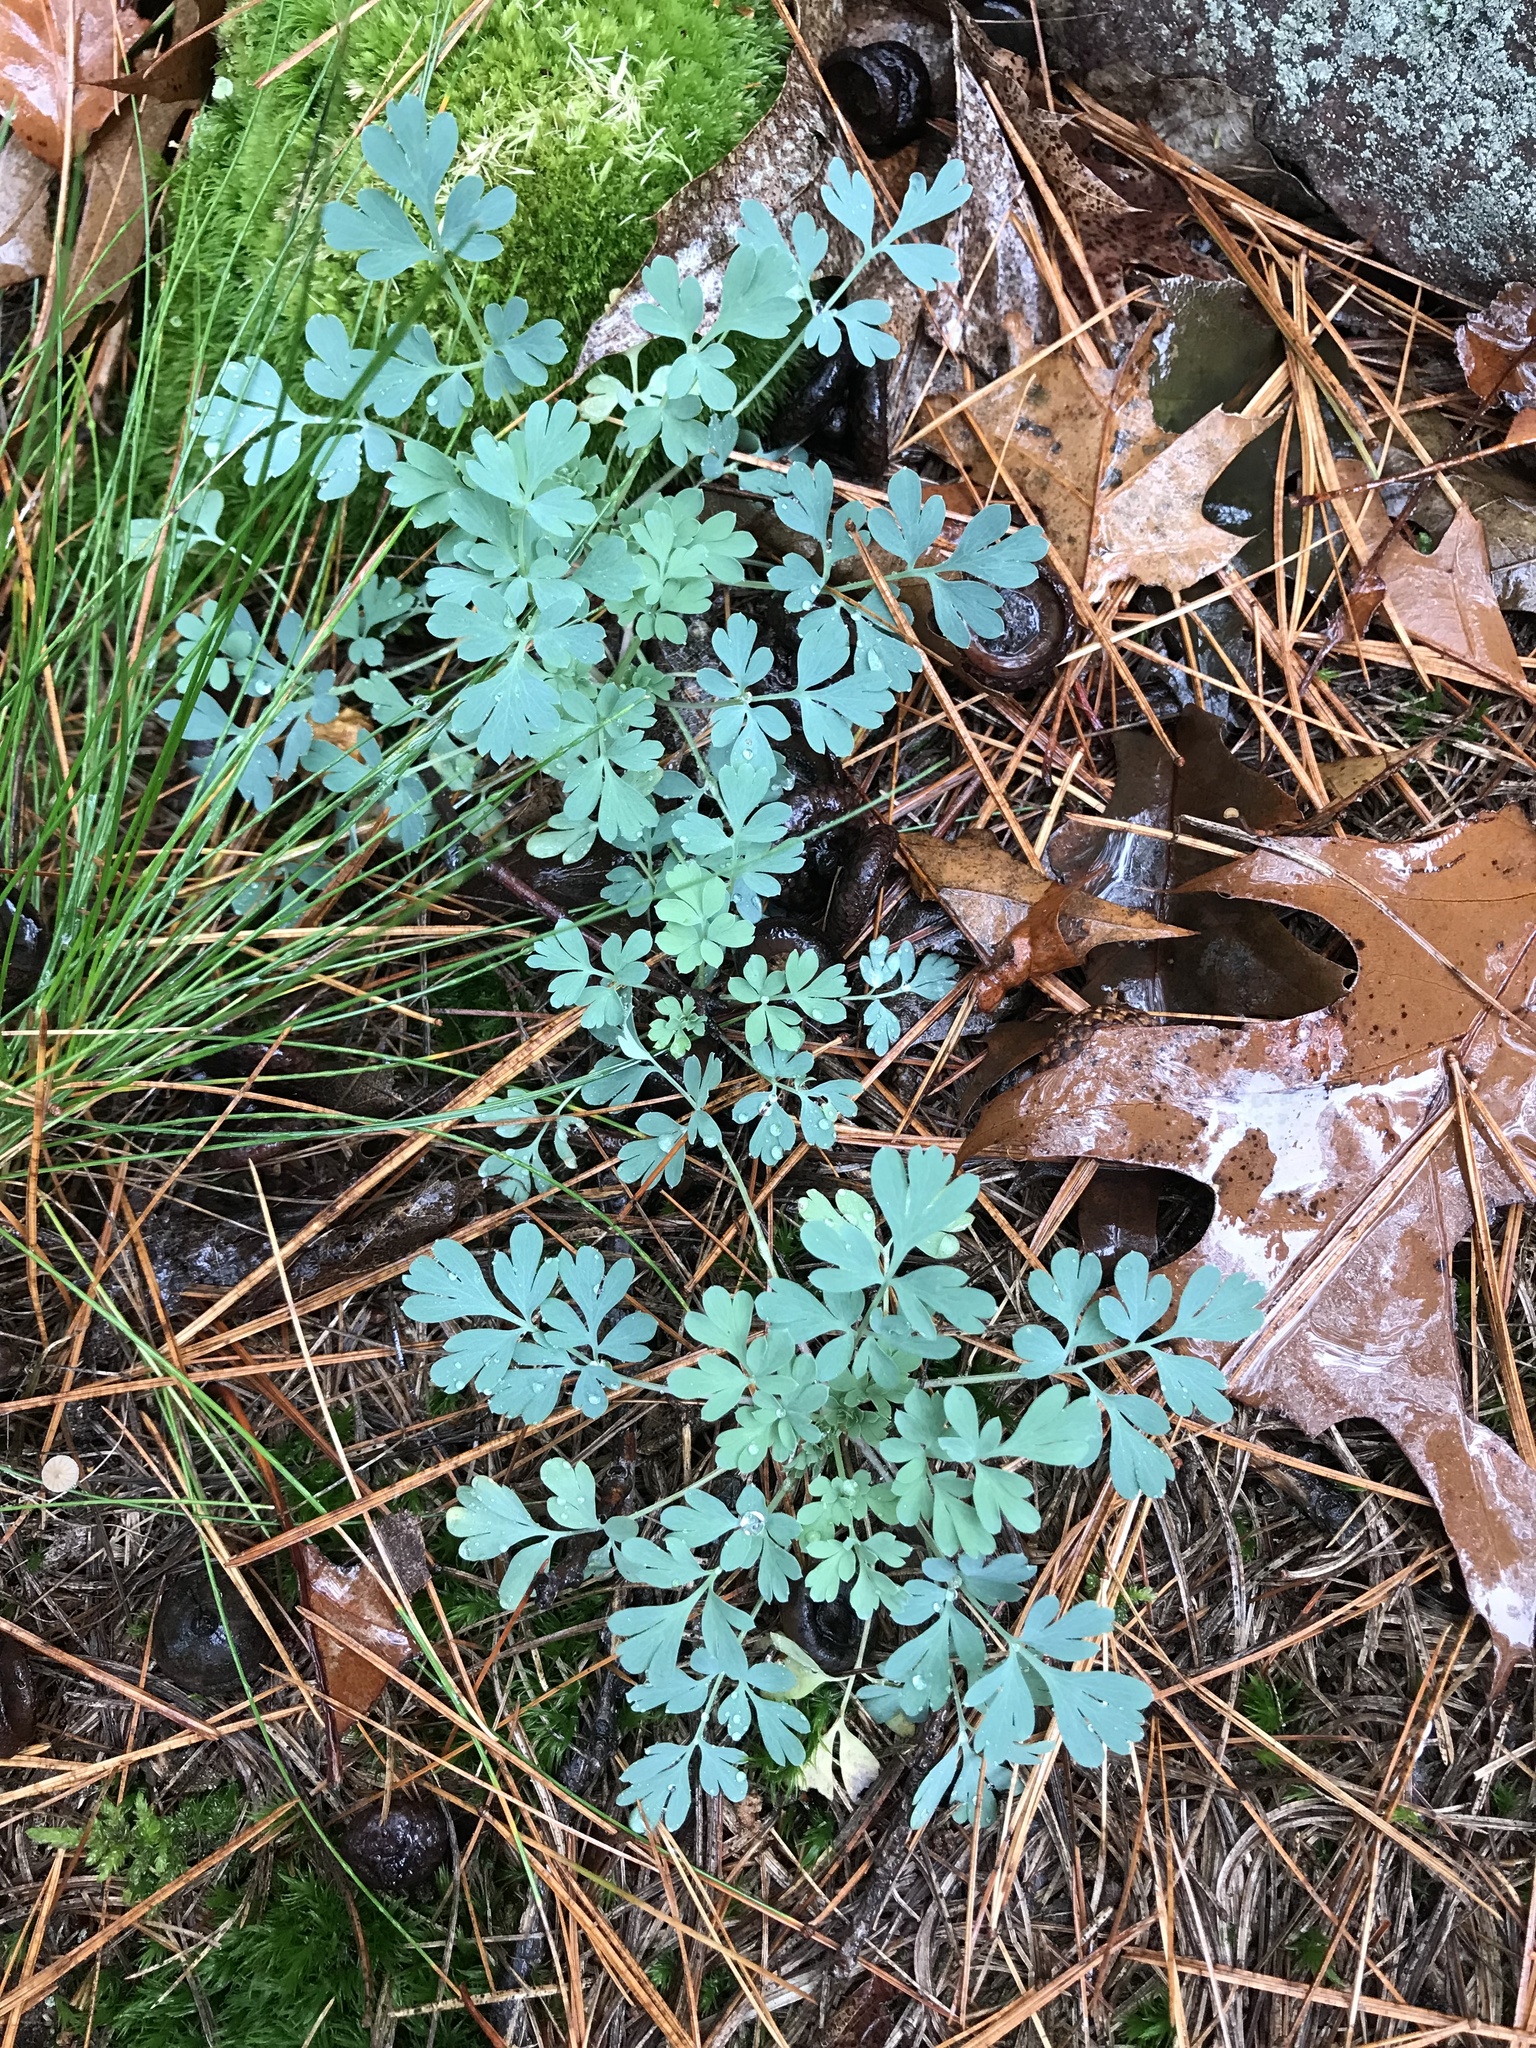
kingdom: Plantae
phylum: Tracheophyta
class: Magnoliopsida
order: Ranunculales
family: Papaveraceae
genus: Capnoides
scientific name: Capnoides sempervirens
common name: Rock harlequin
